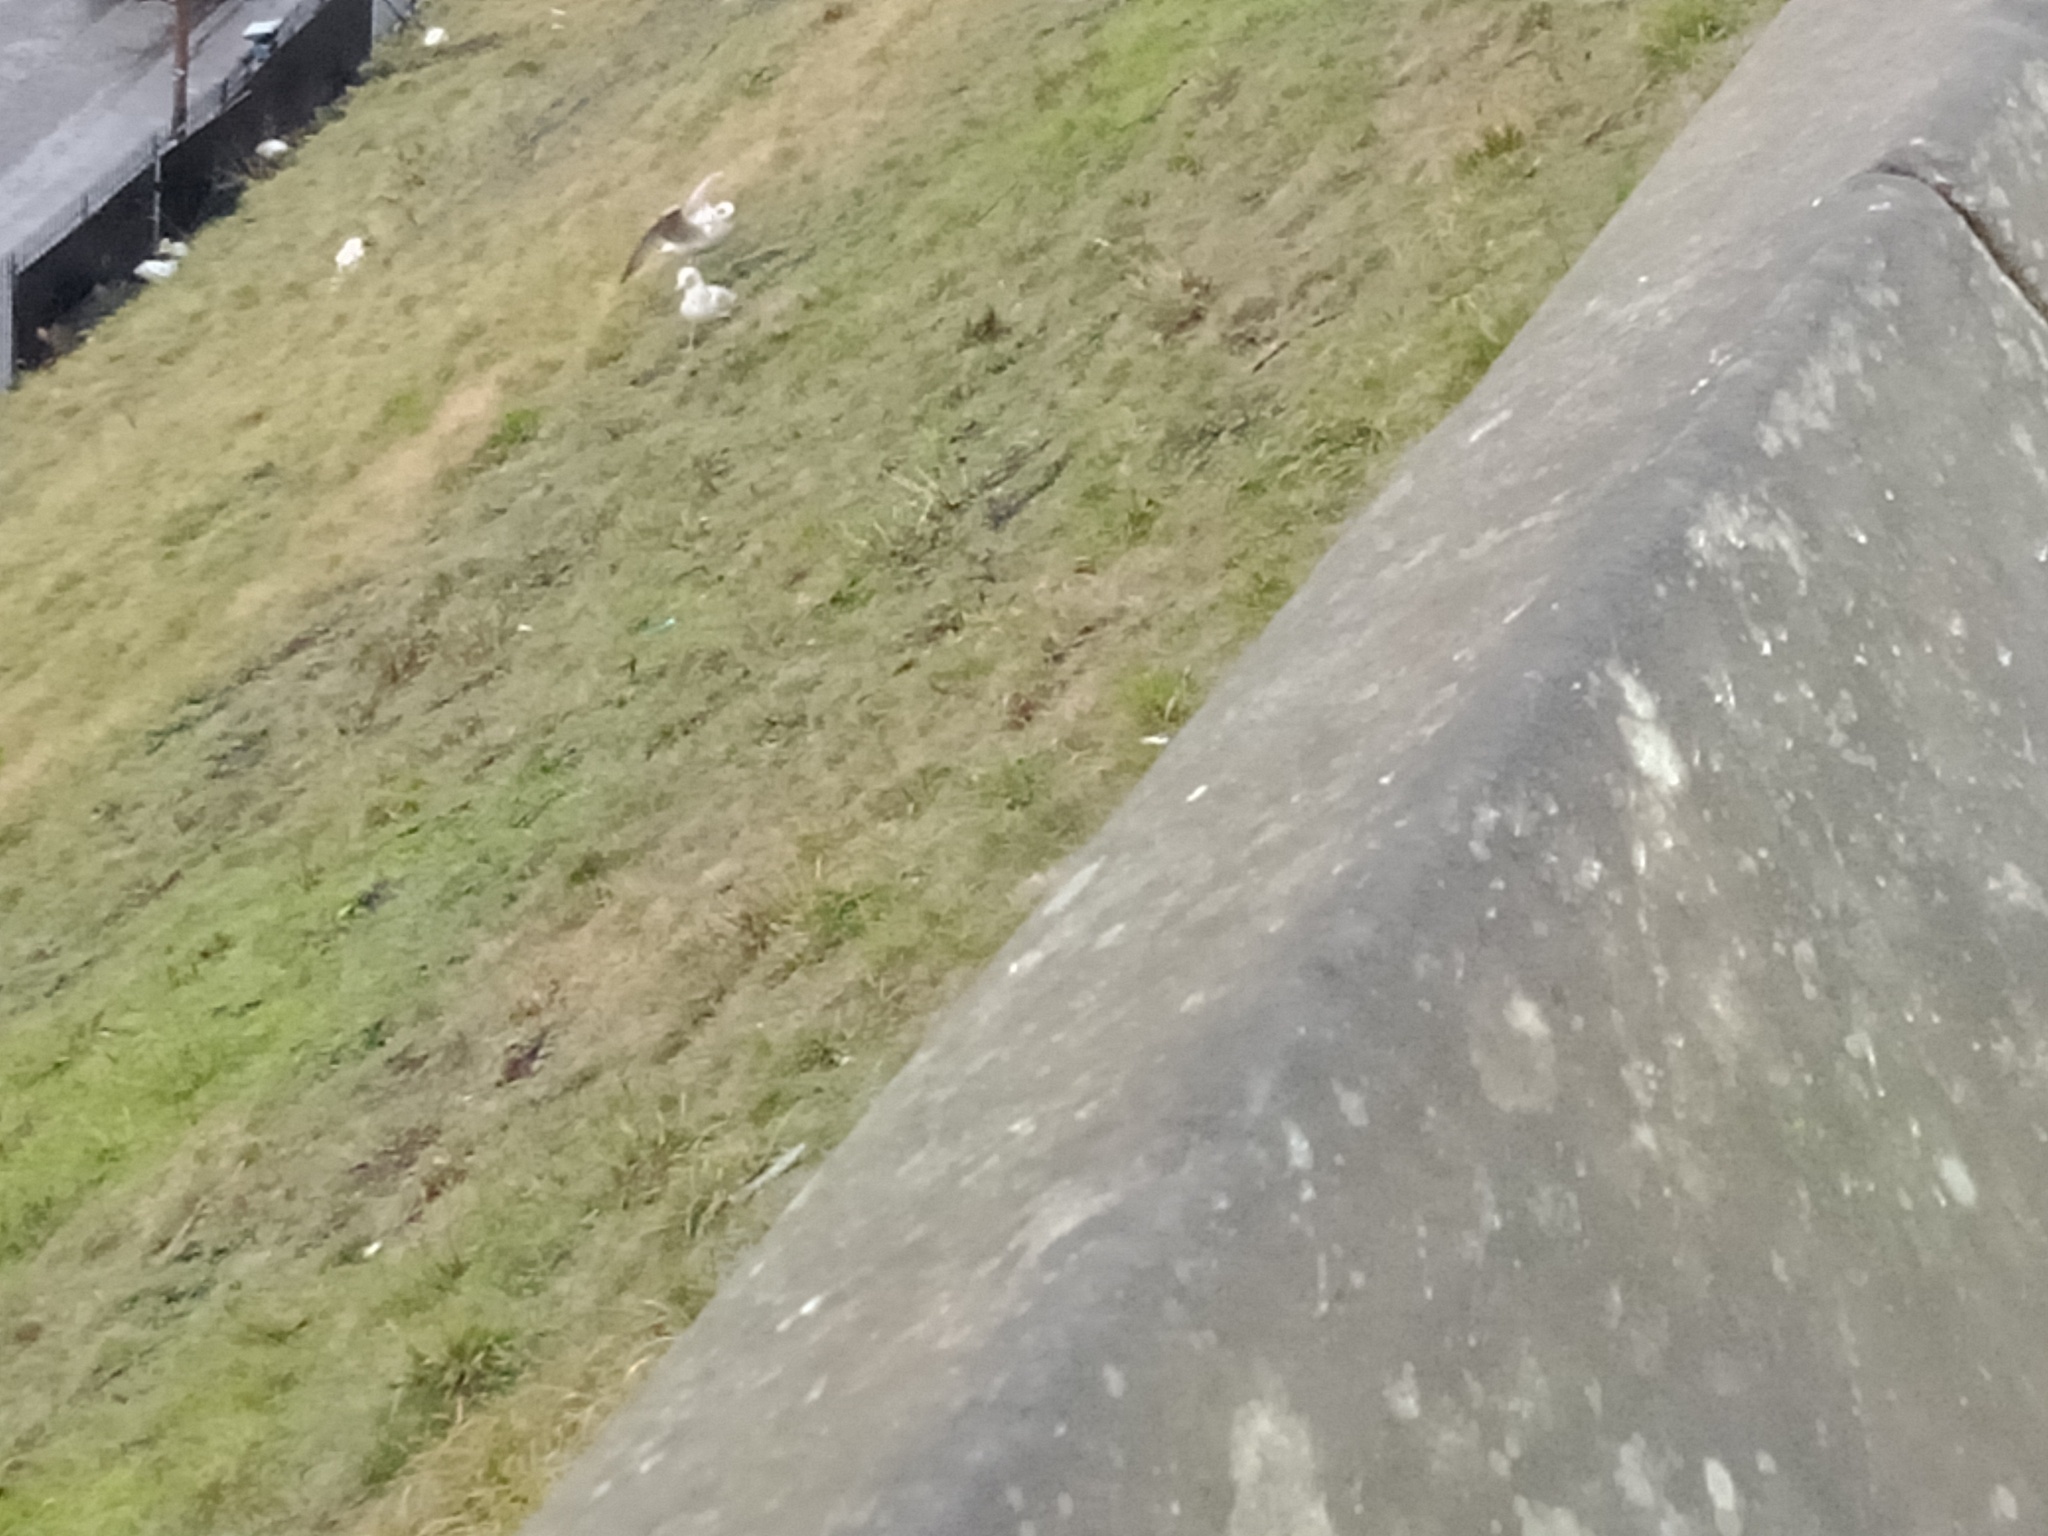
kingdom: Animalia
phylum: Chordata
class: Aves
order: Charadriiformes
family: Laridae
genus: Larus
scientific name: Larus argentatus
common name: Herring gull
